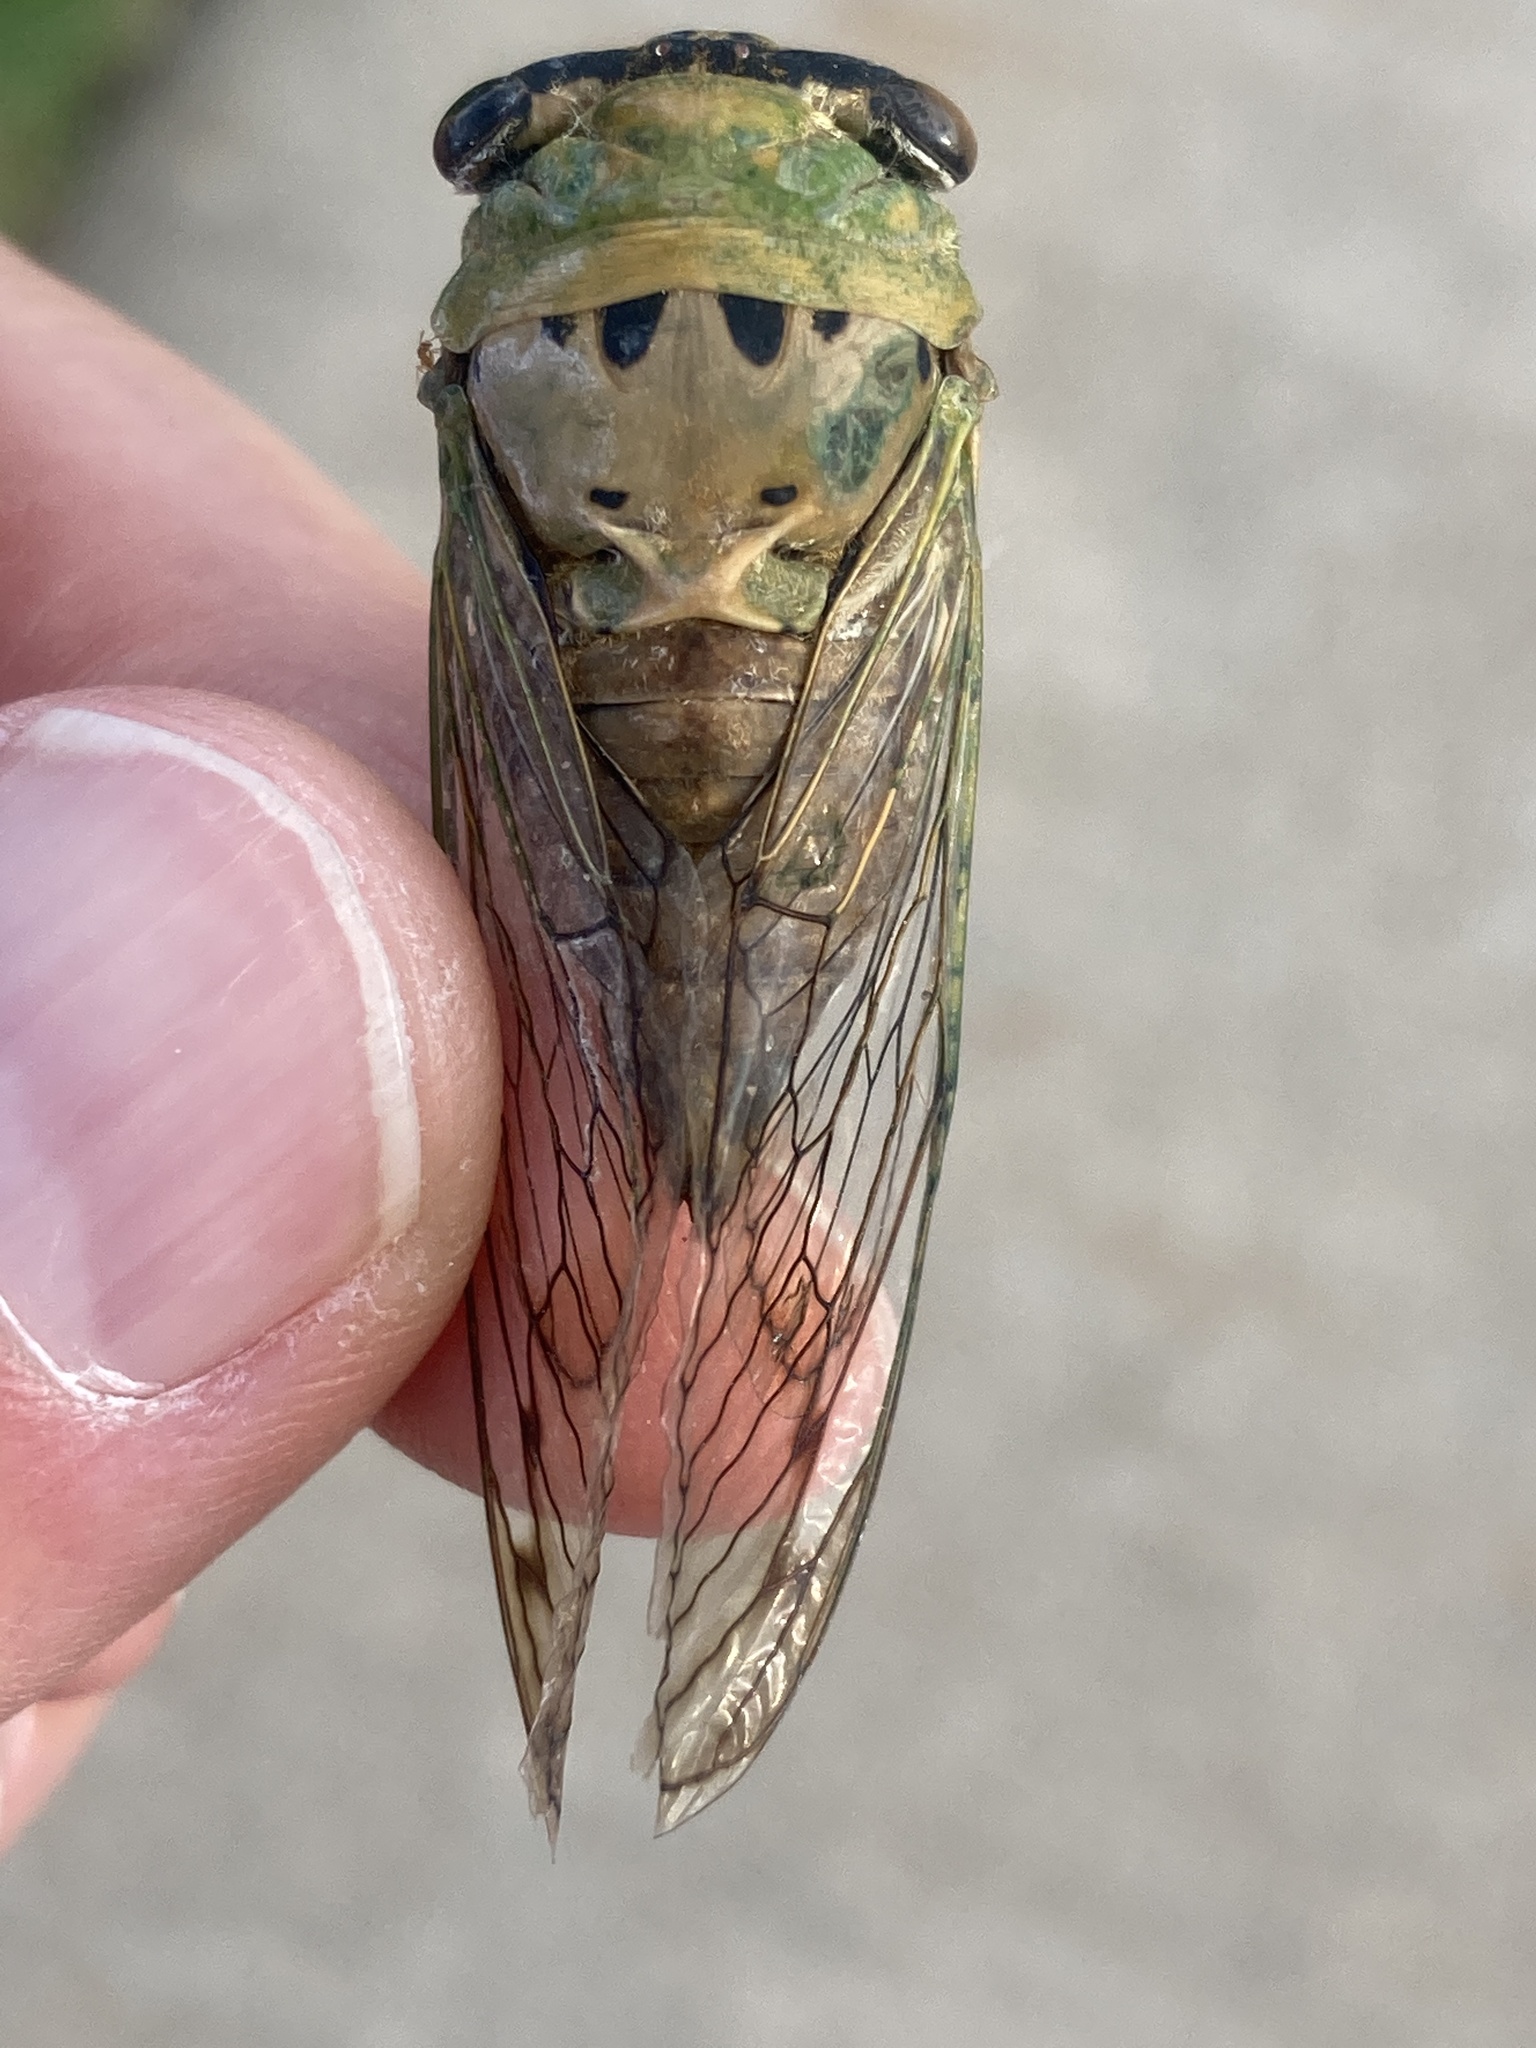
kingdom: Animalia
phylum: Arthropoda
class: Insecta
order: Hemiptera
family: Cicadidae
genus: Neotibicen
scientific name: Neotibicen superbus
